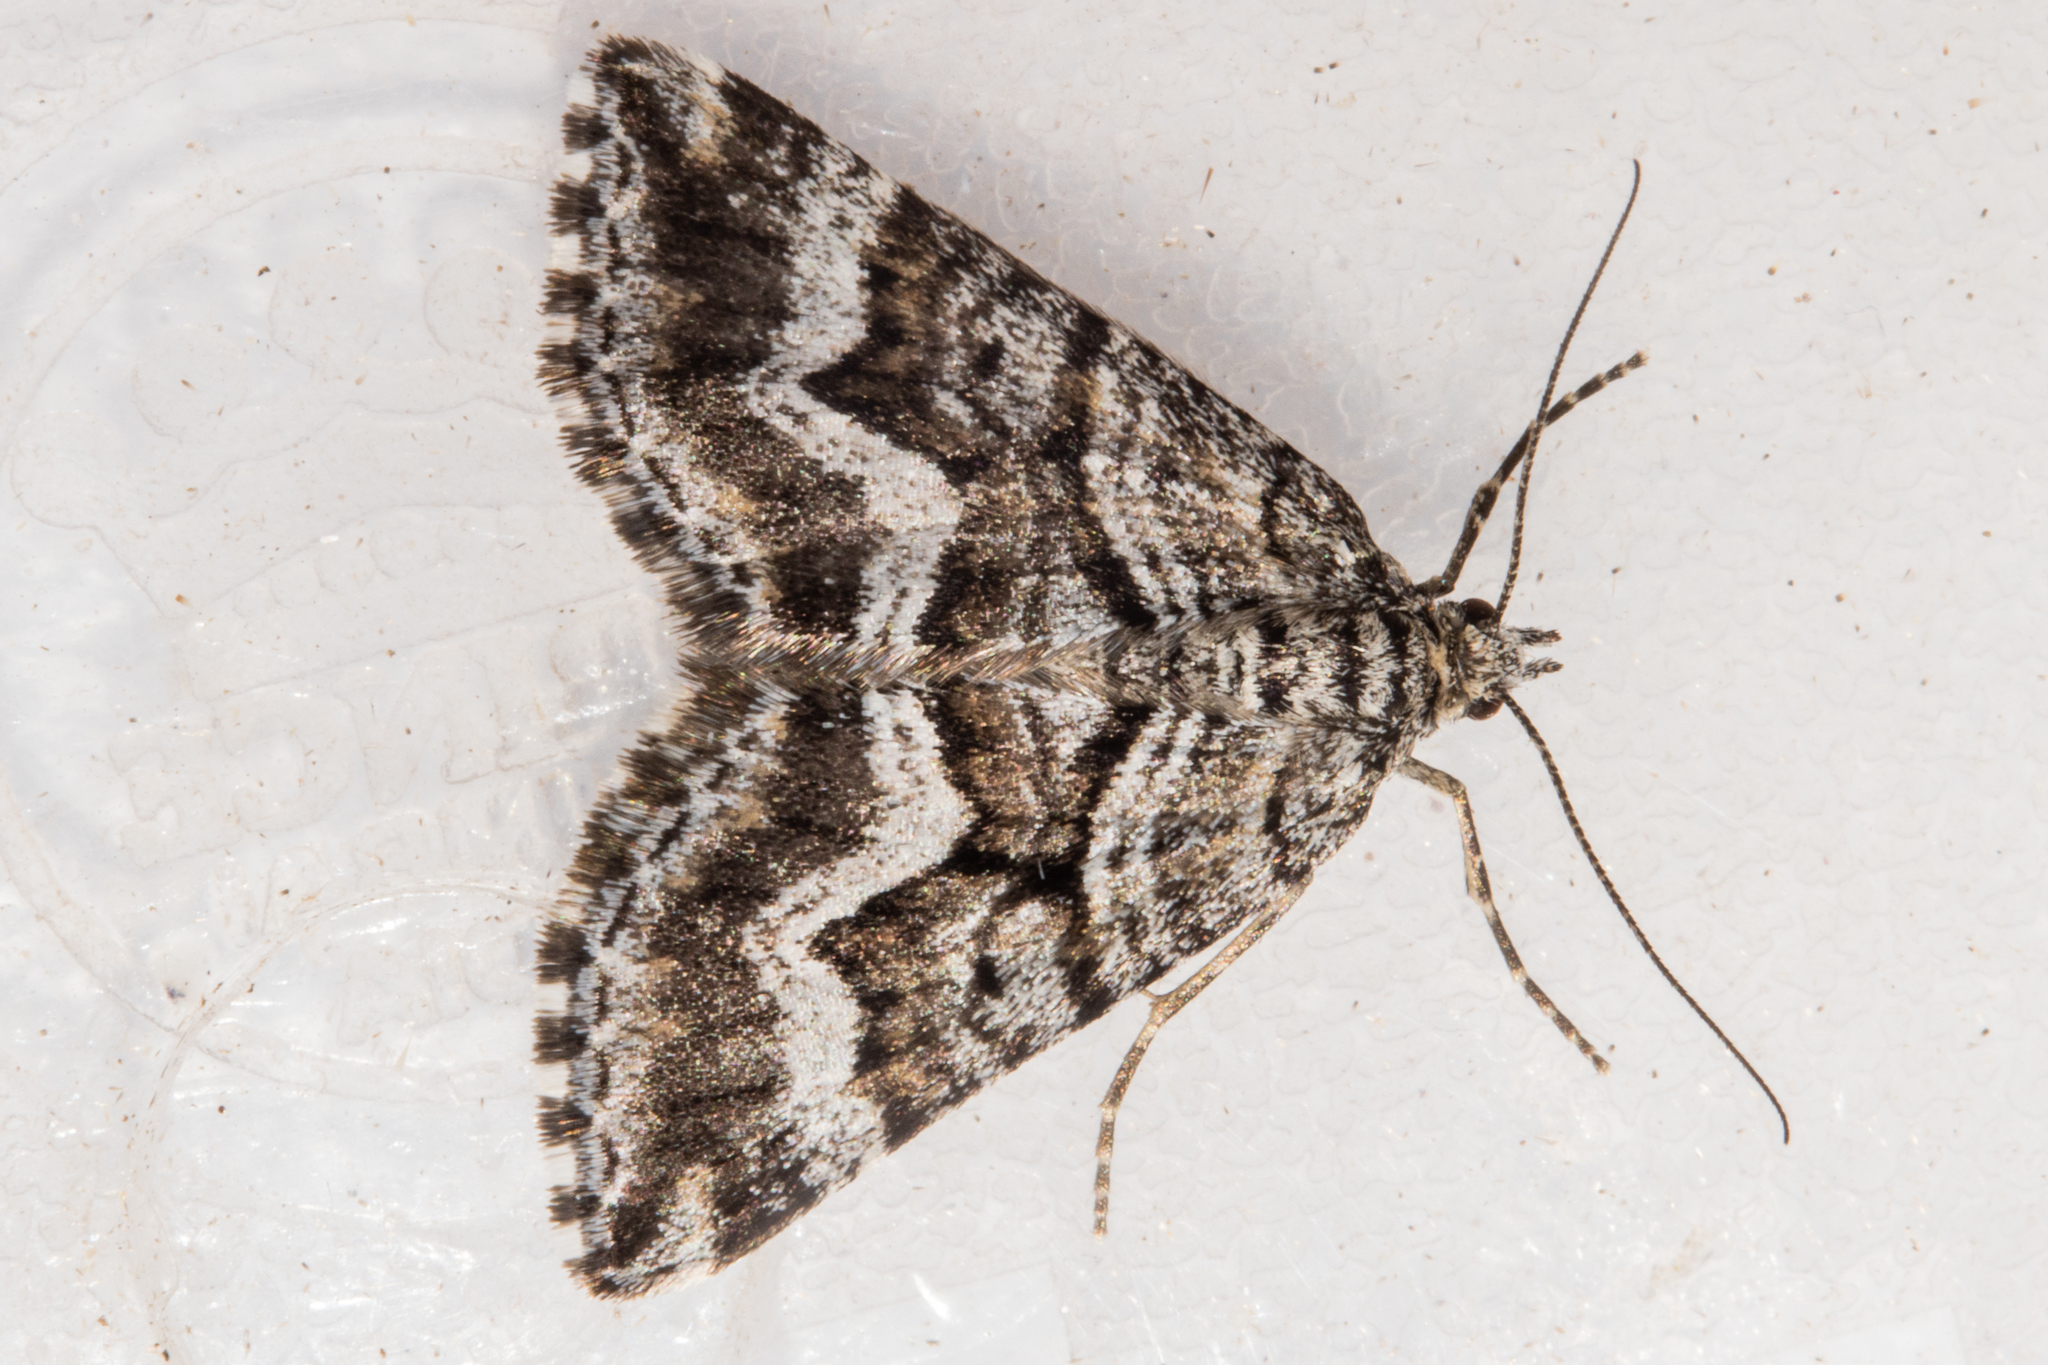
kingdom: Animalia
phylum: Arthropoda
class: Insecta
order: Lepidoptera
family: Geometridae
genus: Aponotoreas
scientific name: Aponotoreas anthracias
